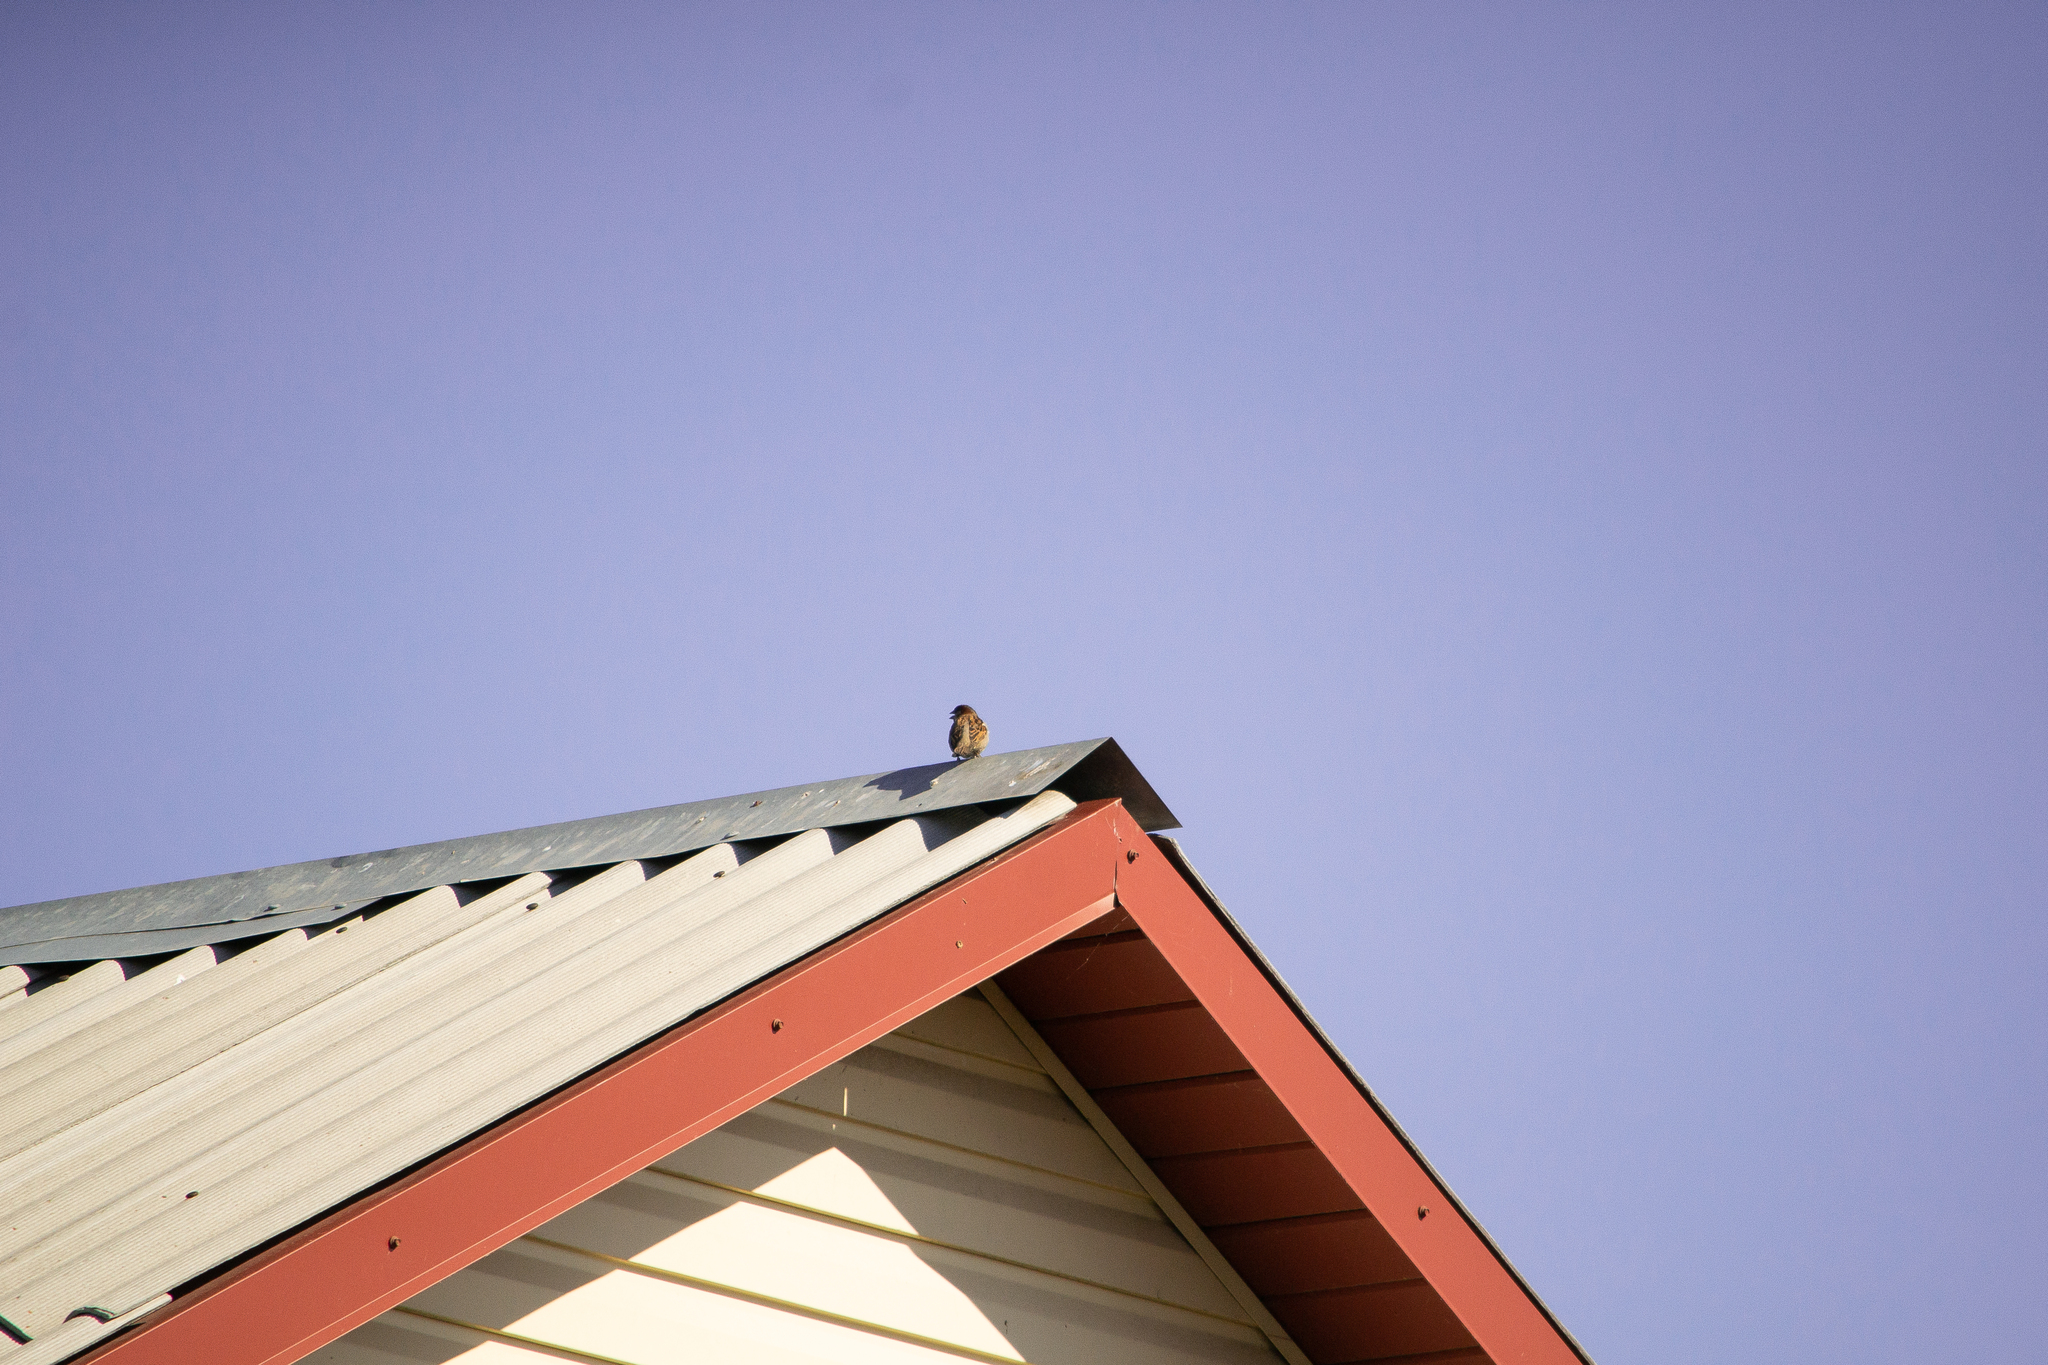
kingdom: Animalia
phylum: Chordata
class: Aves
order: Passeriformes
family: Passeridae
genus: Passer
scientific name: Passer domesticus
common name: House sparrow
